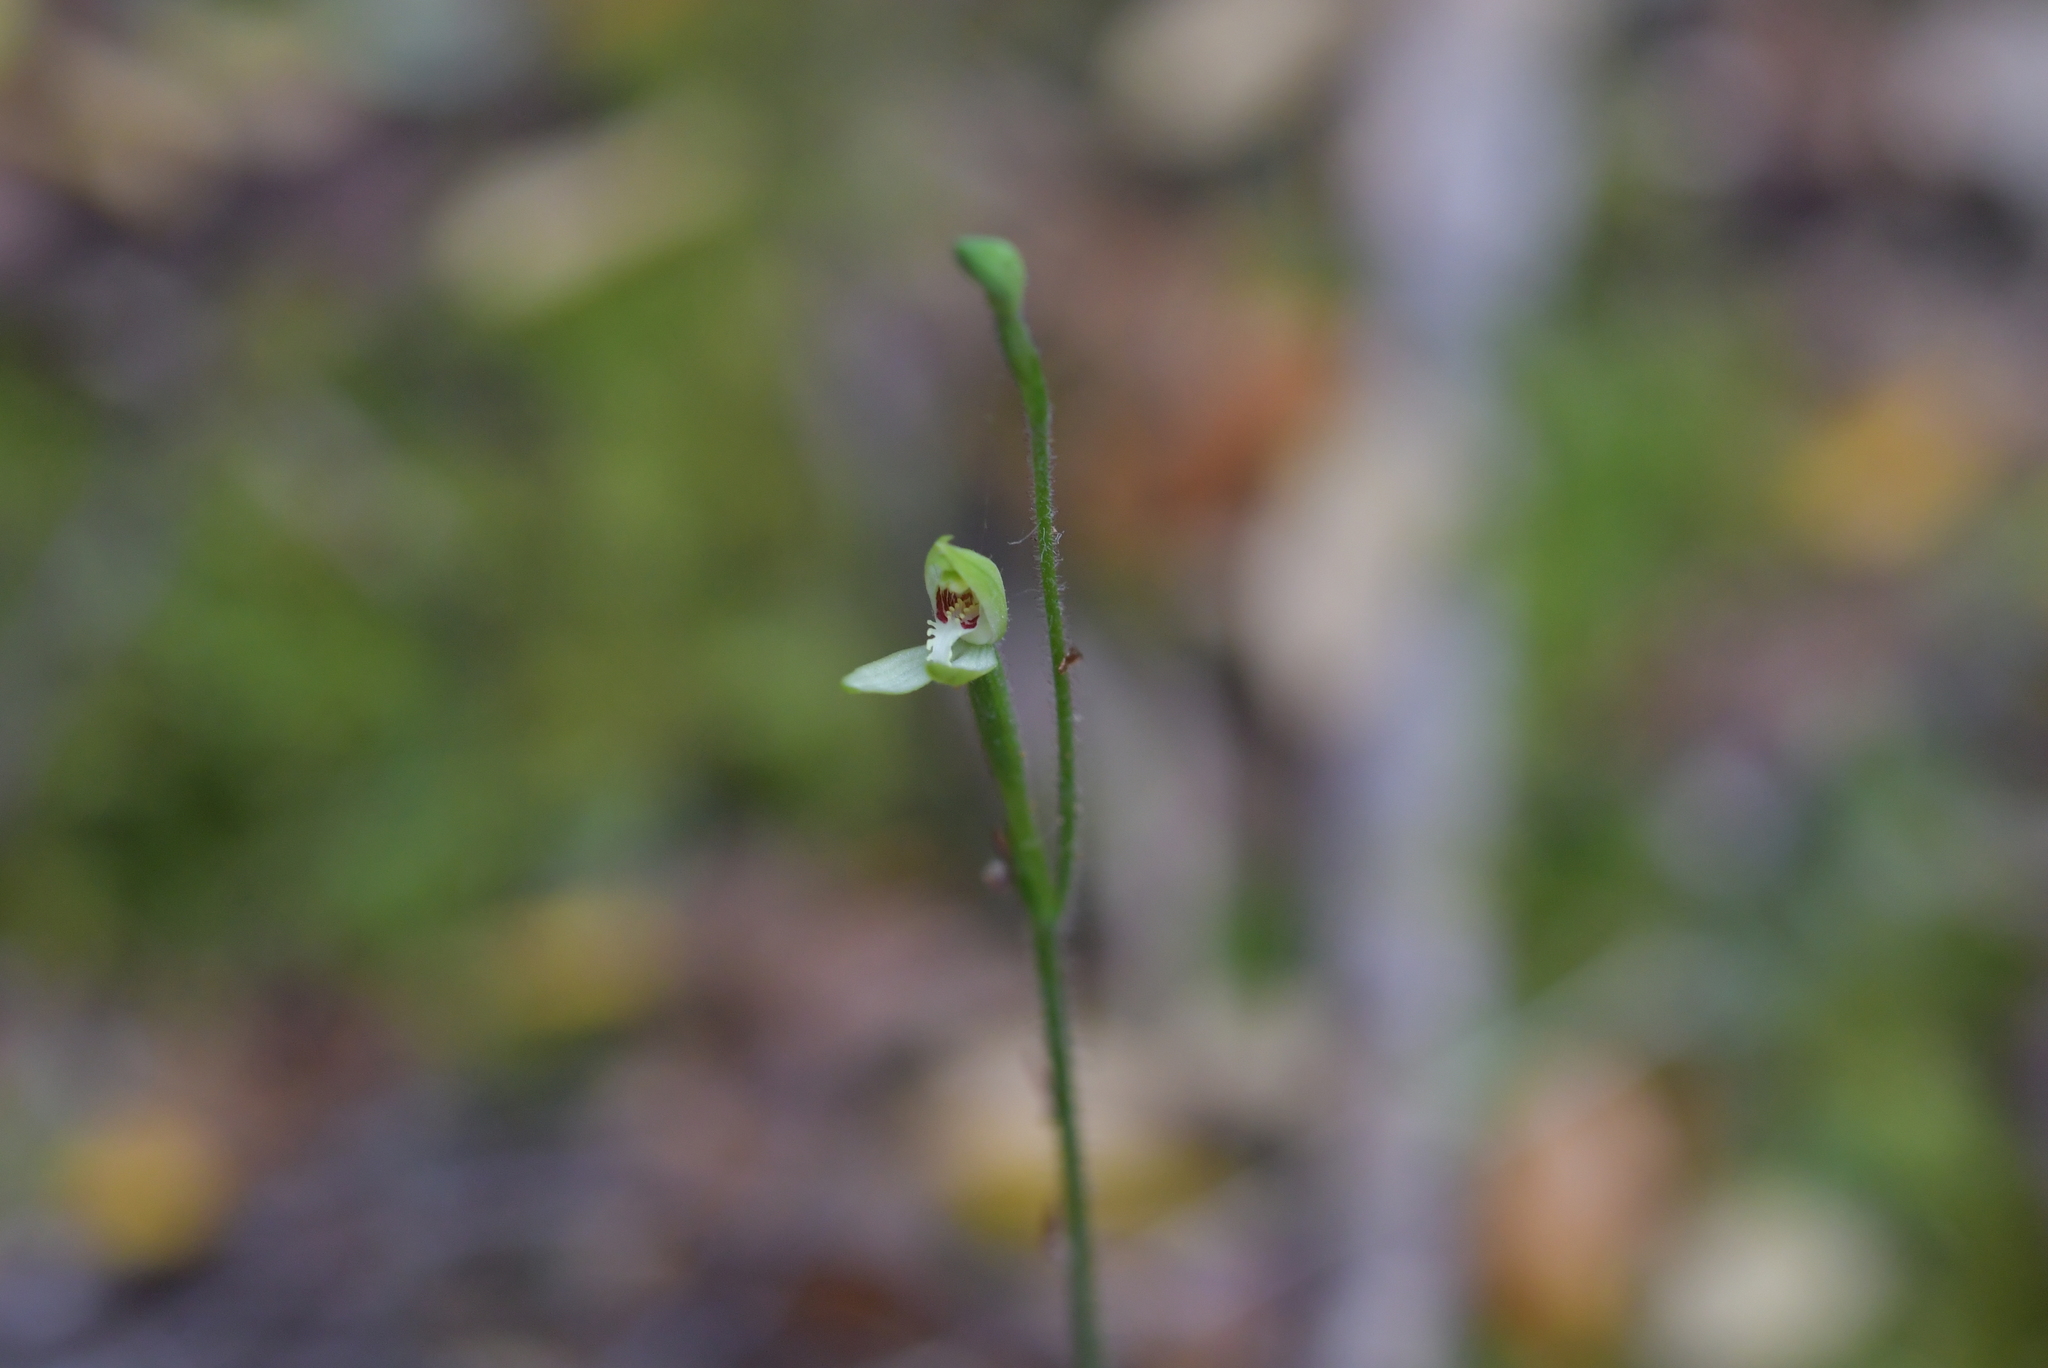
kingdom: Plantae
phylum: Tracheophyta
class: Liliopsida
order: Asparagales
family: Orchidaceae
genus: Caladenia
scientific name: Caladenia chlorostyla
